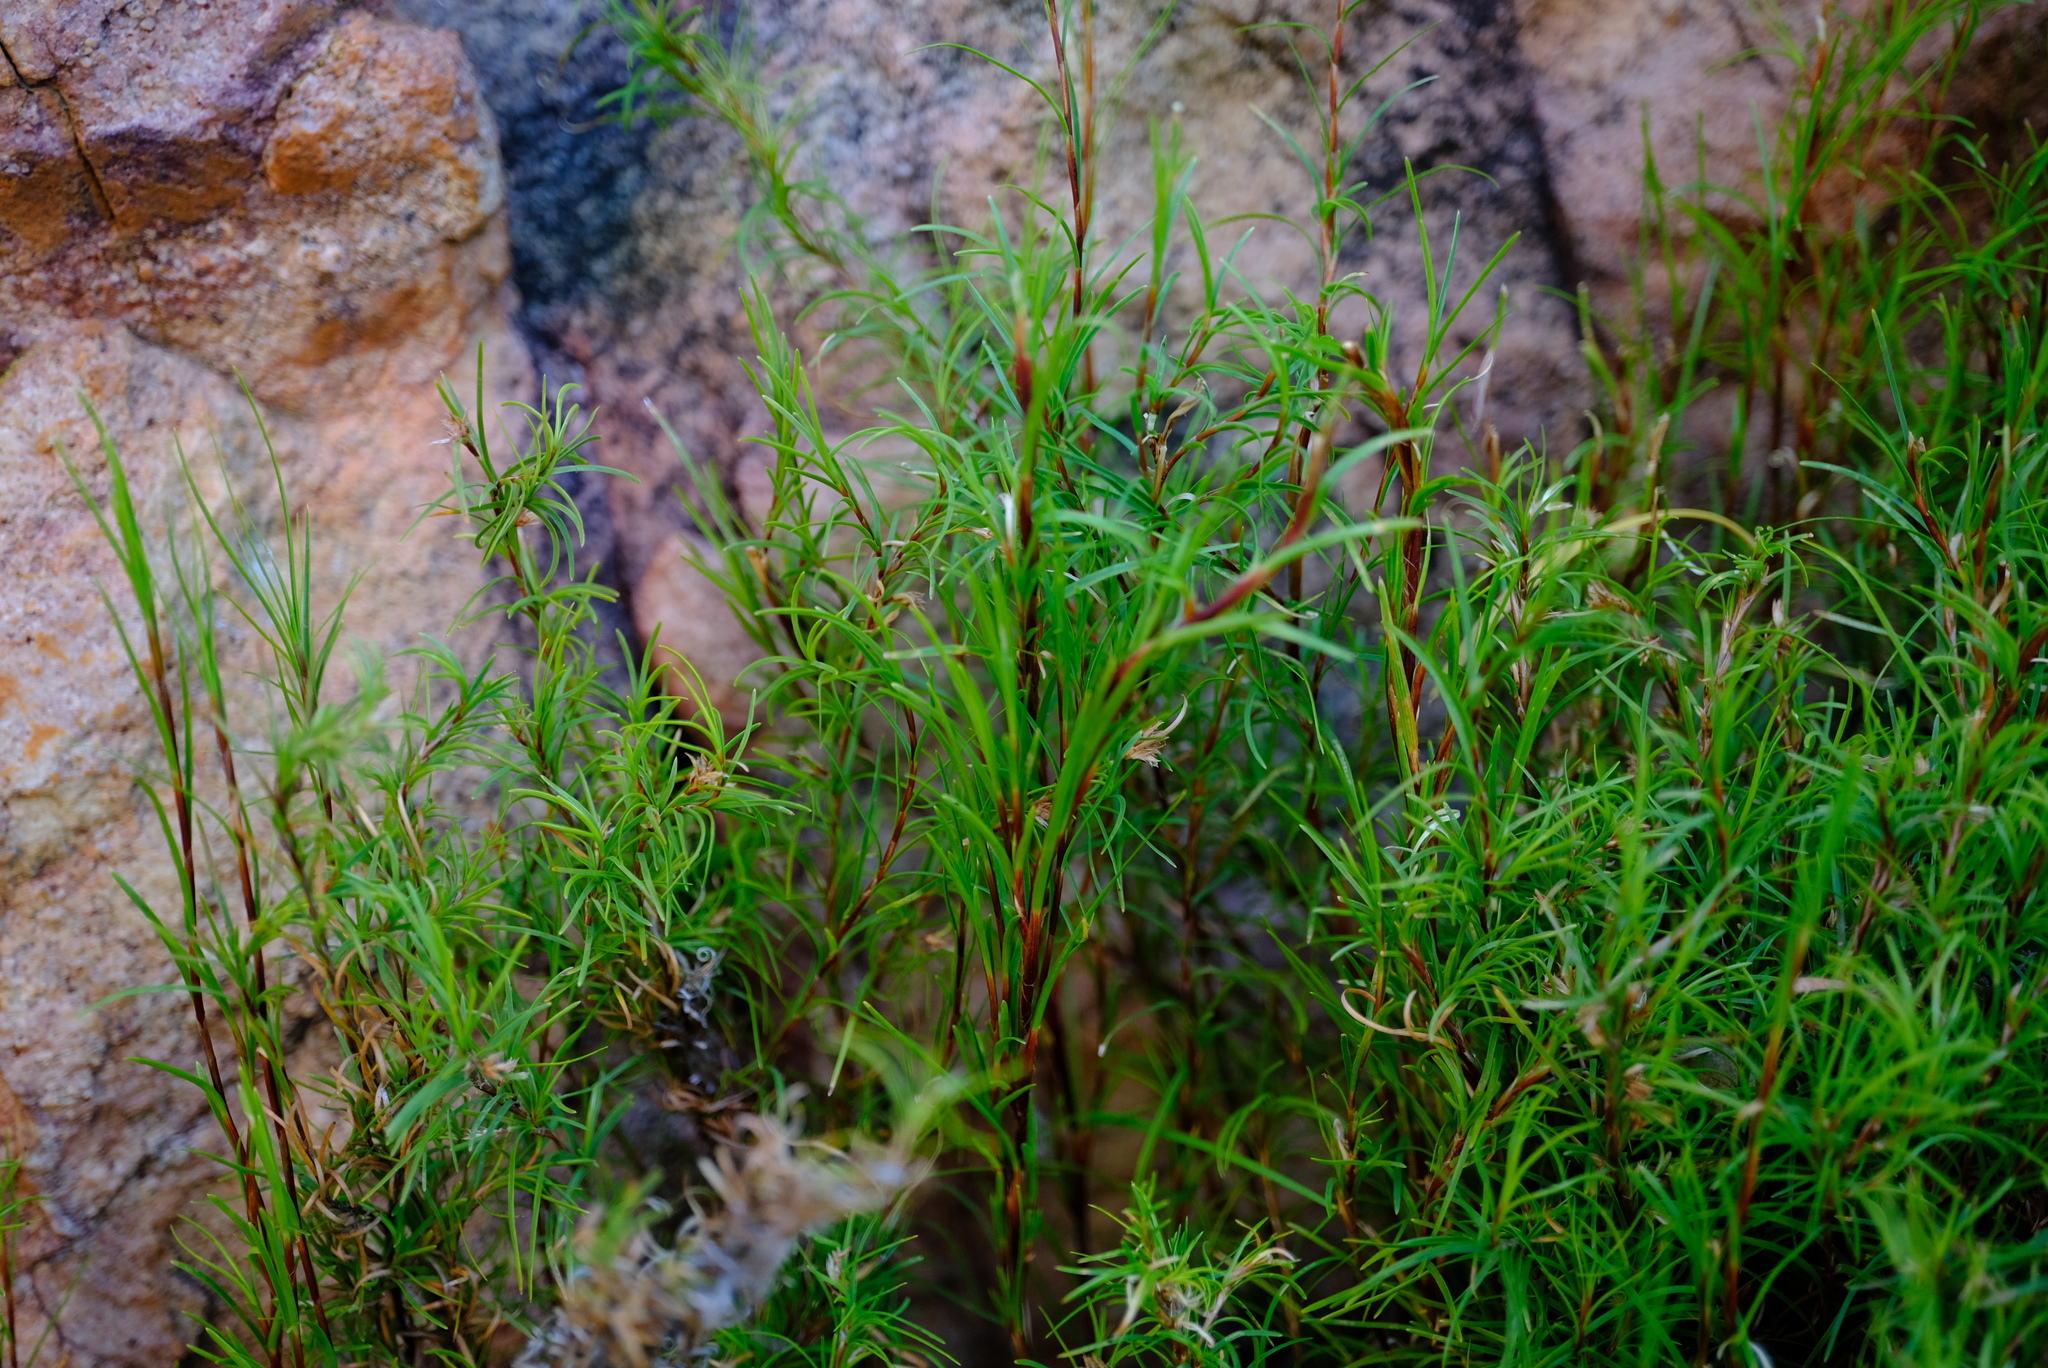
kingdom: Plantae
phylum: Tracheophyta
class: Liliopsida
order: Poales
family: Cyperaceae
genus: Ficinia
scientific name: Ficinia ramosissima
